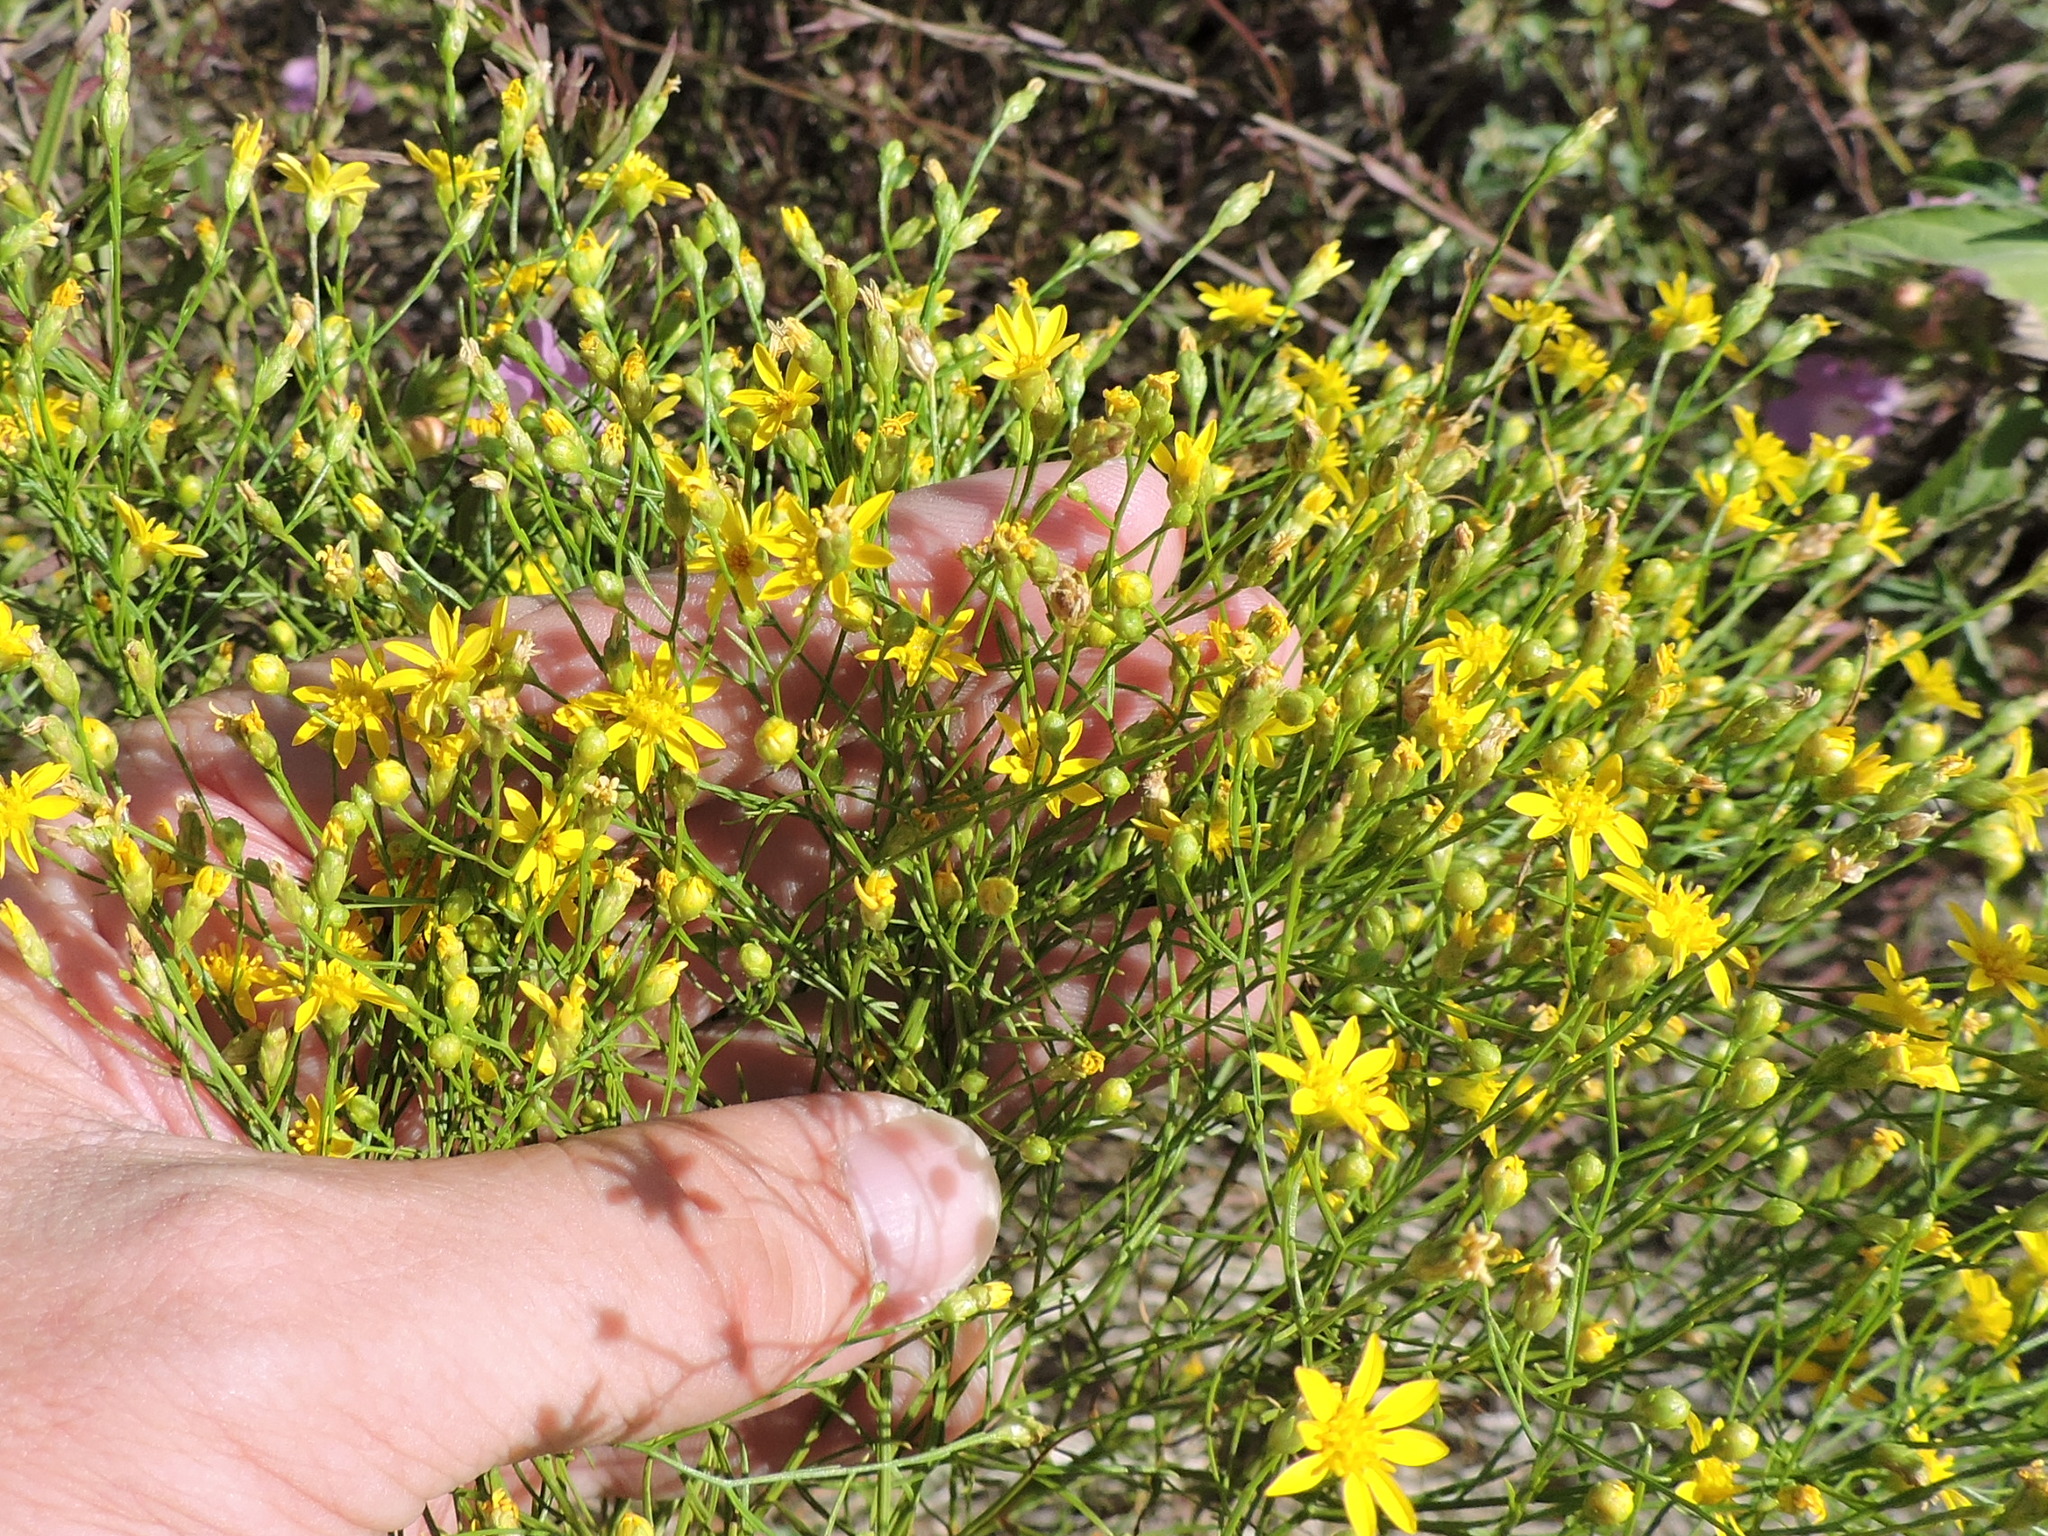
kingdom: Plantae
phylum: Tracheophyta
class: Magnoliopsida
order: Asterales
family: Asteraceae
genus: Amphiachyris
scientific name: Amphiachyris dracunculoides
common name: Broomweed
